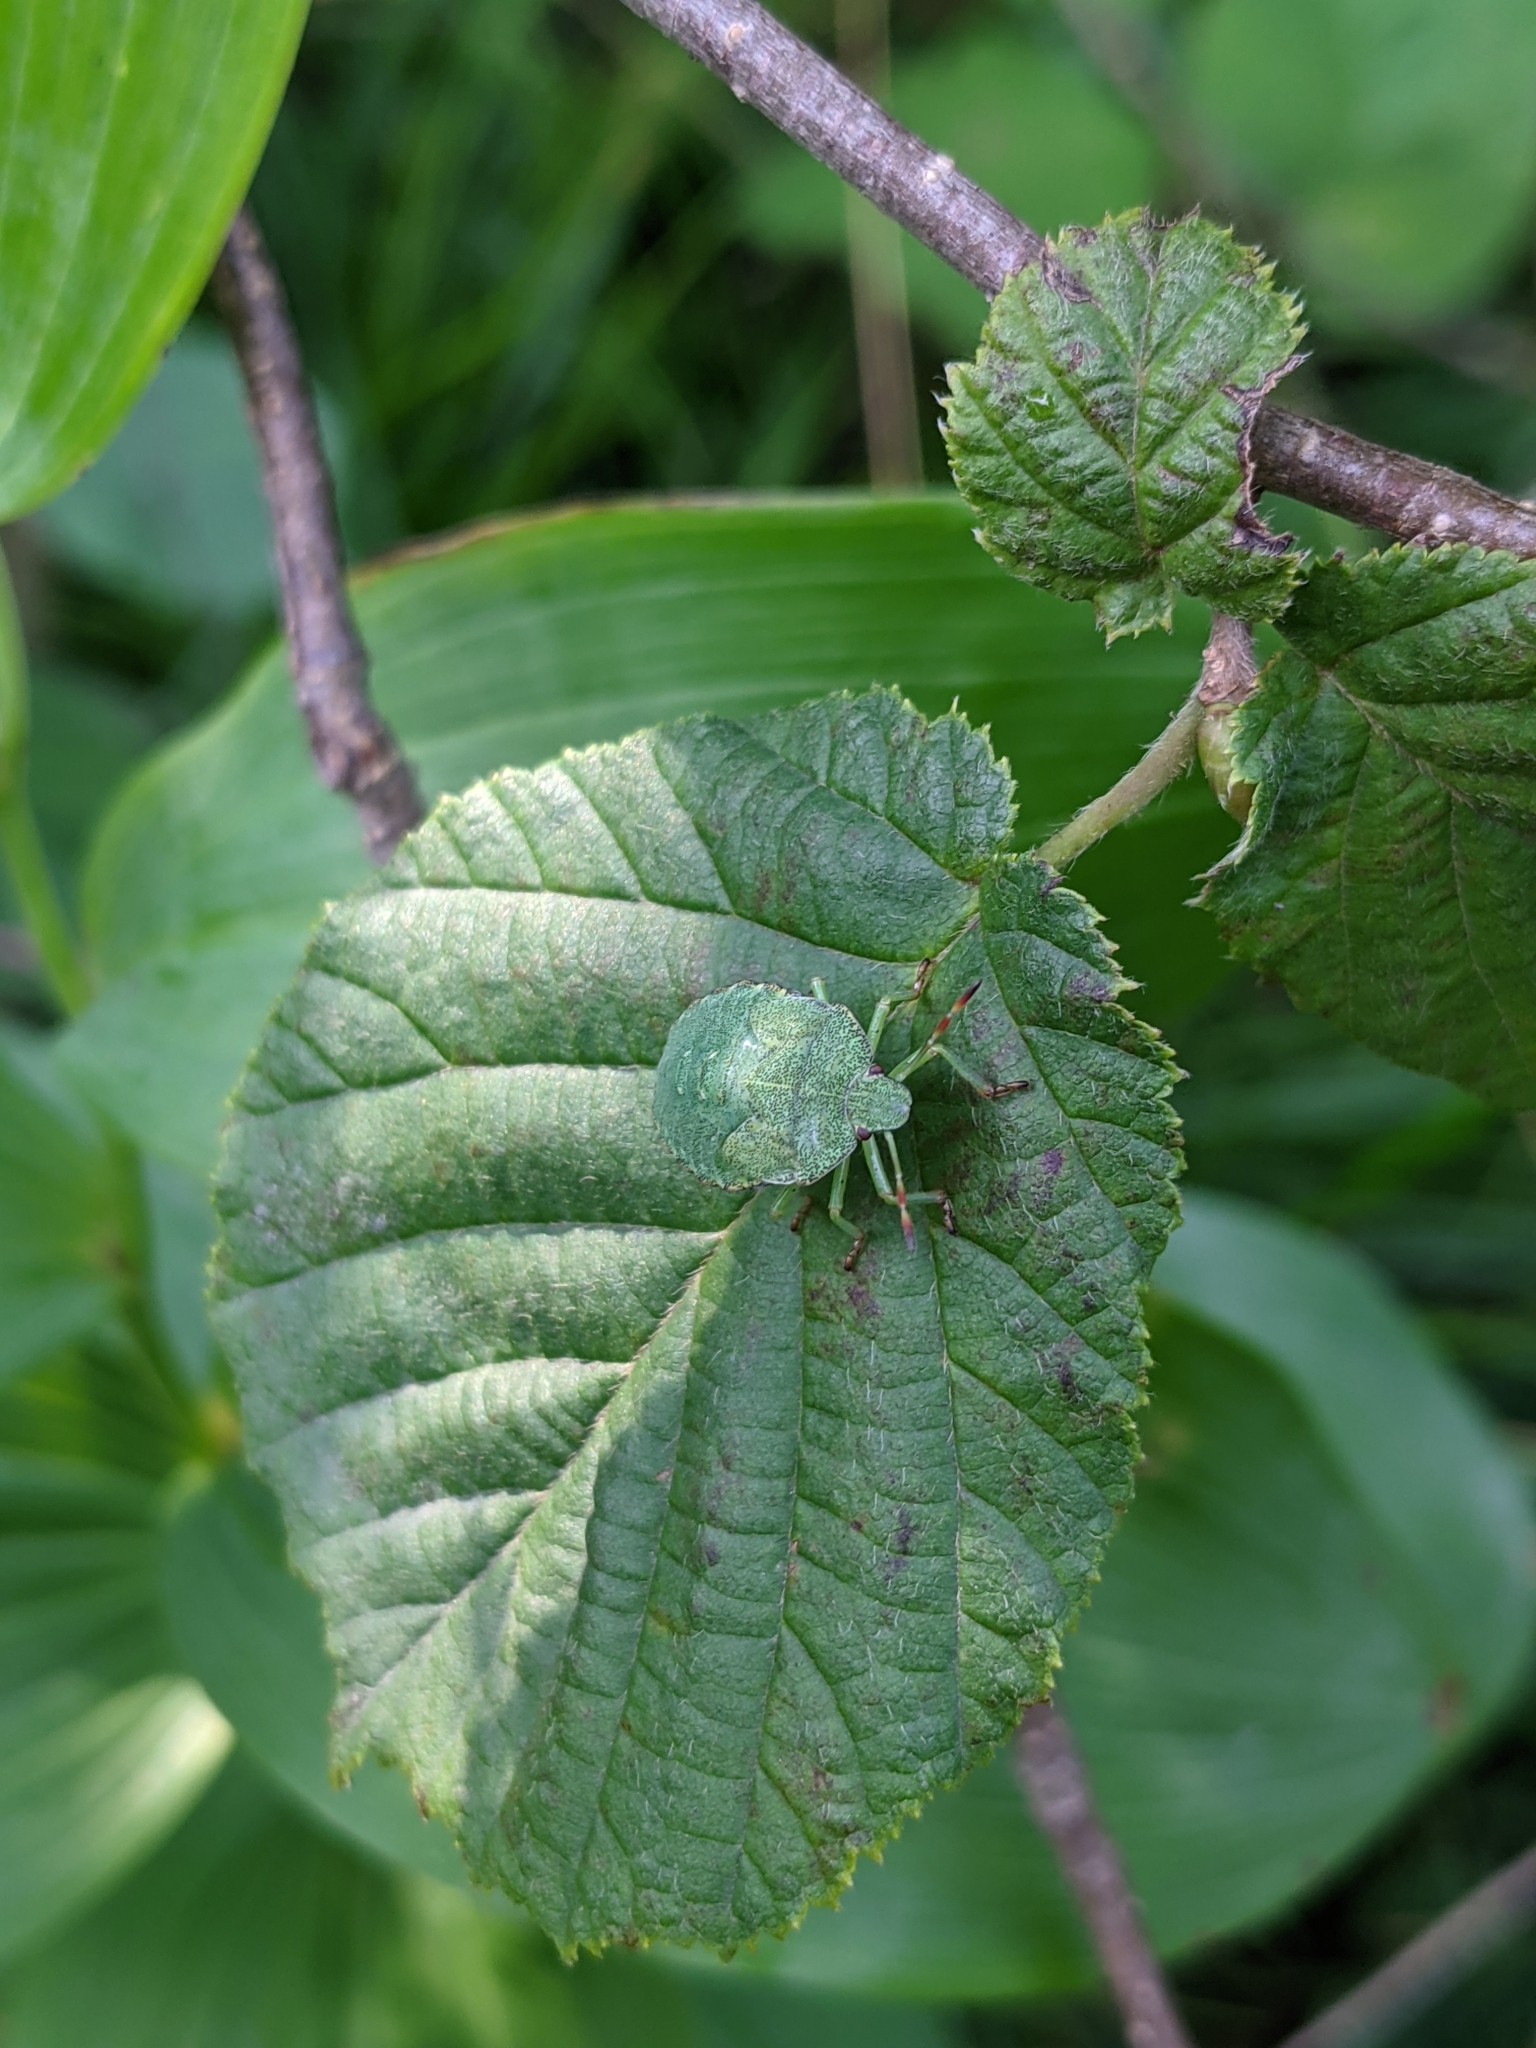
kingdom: Animalia
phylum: Arthropoda
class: Insecta
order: Hemiptera
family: Pentatomidae
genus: Palomena
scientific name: Palomena prasina
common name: Green shieldbug
